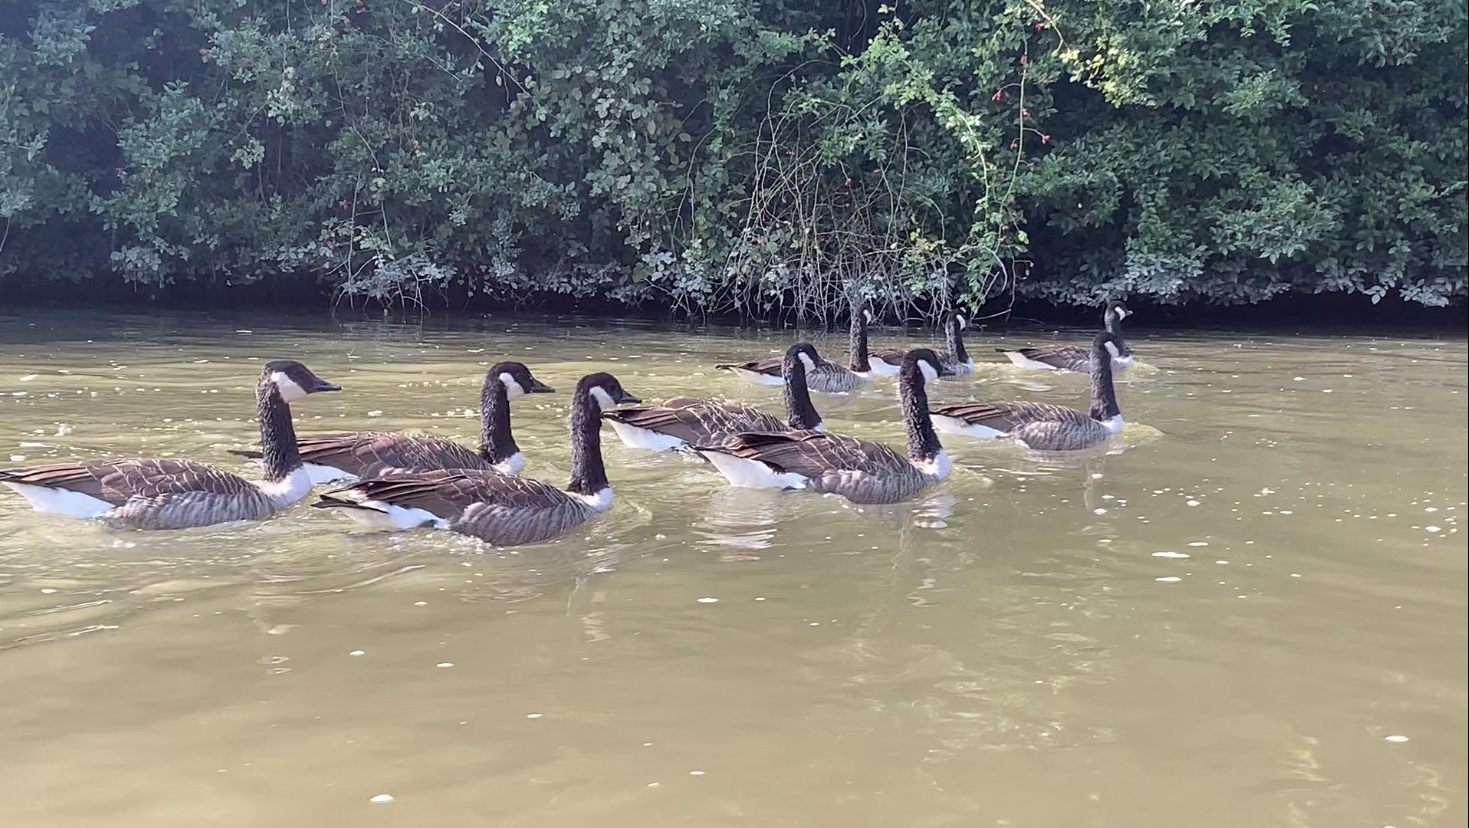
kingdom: Animalia
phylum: Chordata
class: Aves
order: Anseriformes
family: Anatidae
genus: Branta
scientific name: Branta canadensis
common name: Canada goose
